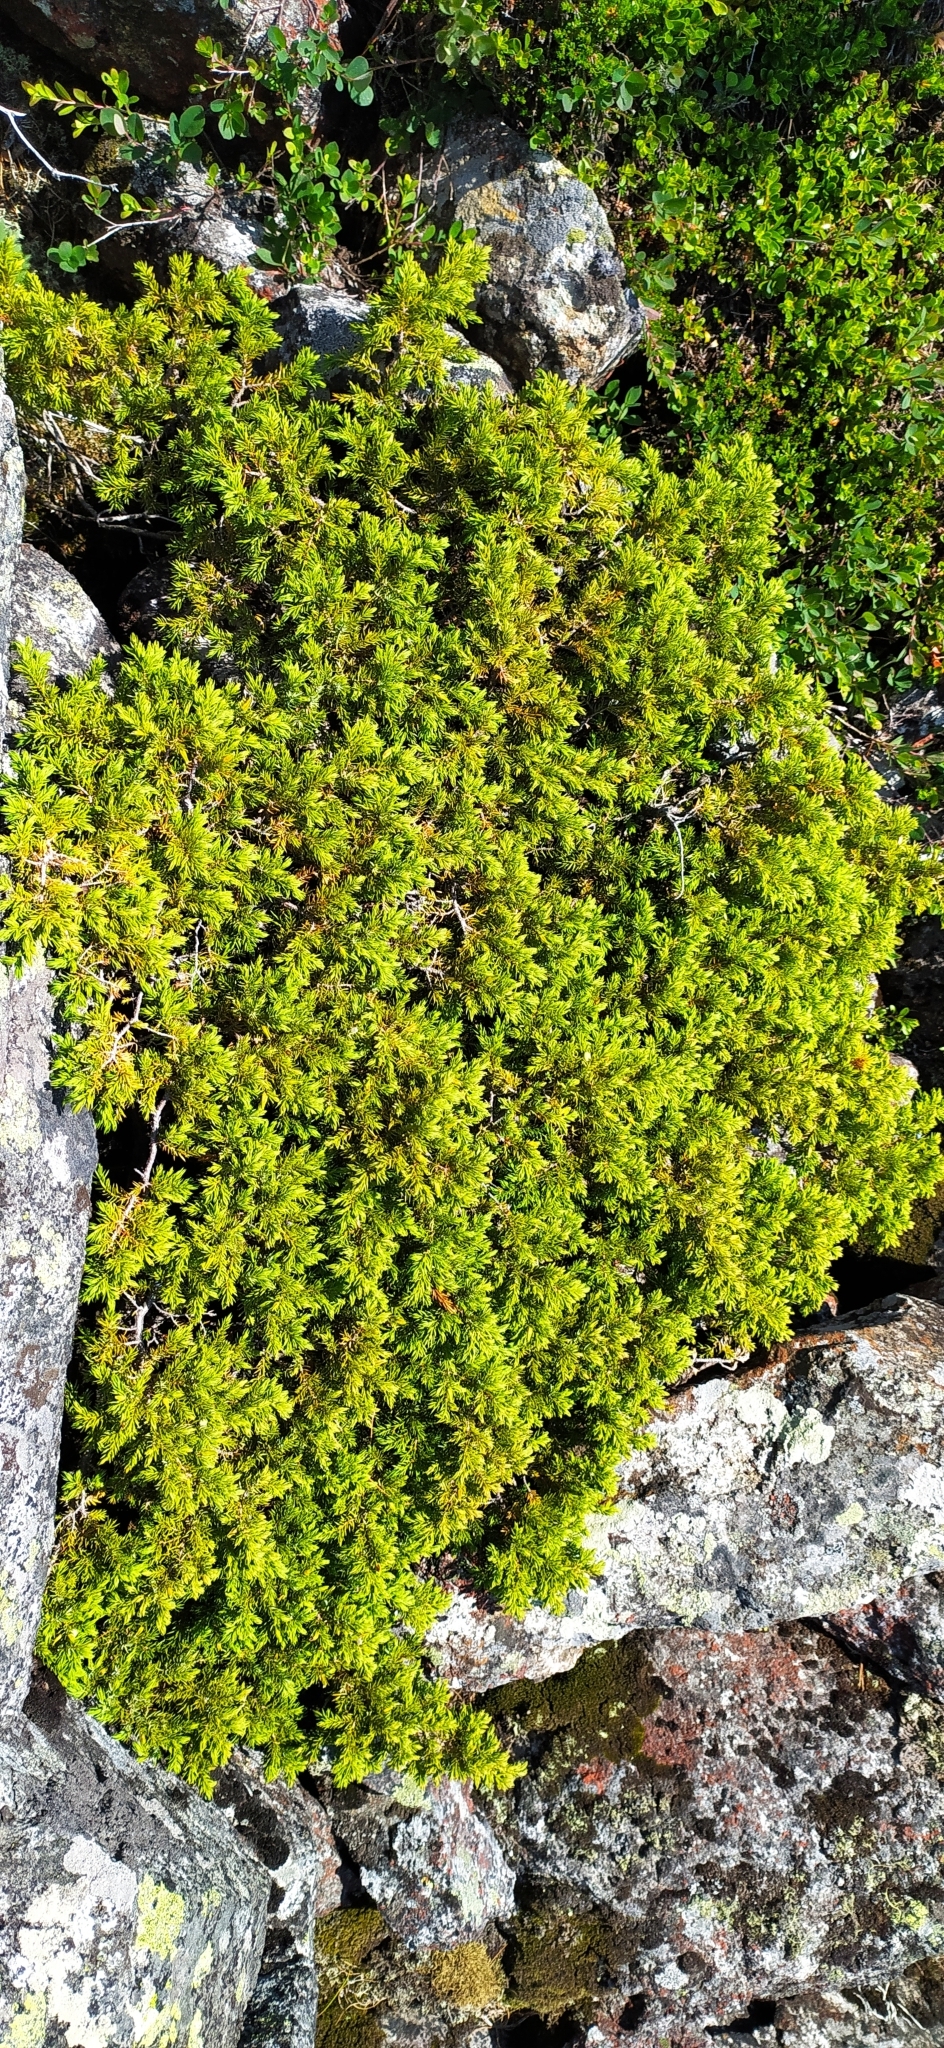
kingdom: Plantae
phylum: Tracheophyta
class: Pinopsida
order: Pinales
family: Cupressaceae
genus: Juniperus
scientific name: Juniperus communis
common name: Common juniper
